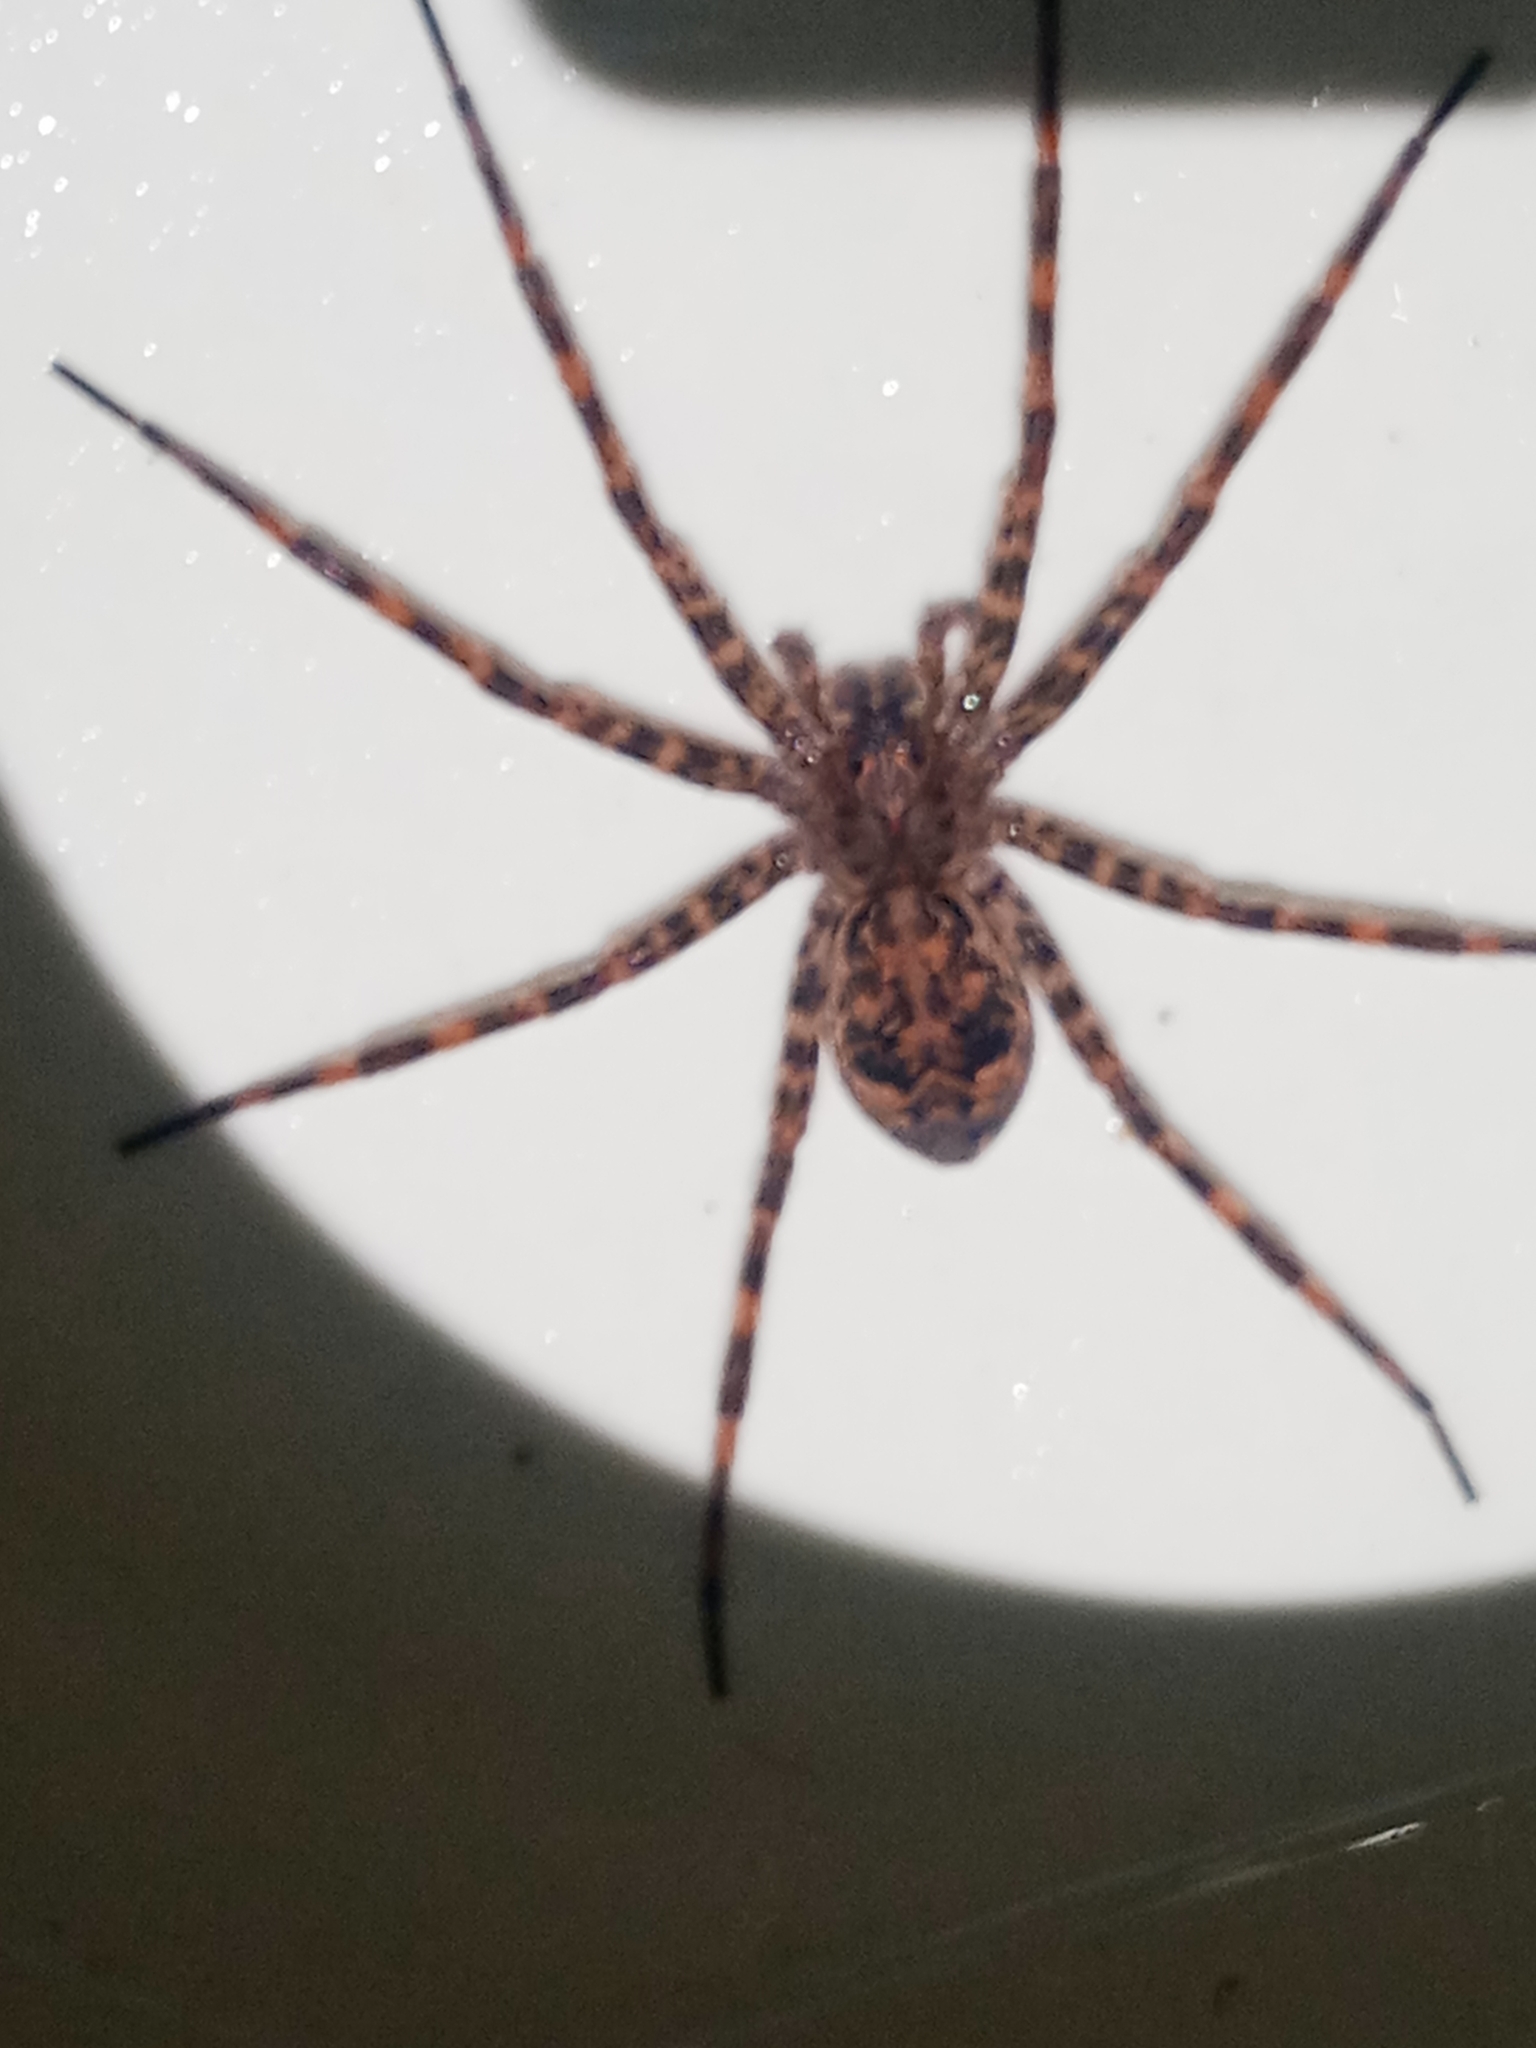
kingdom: Animalia
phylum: Arthropoda
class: Arachnida
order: Araneae
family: Pisauridae
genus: Dolomedes
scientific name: Dolomedes tenebrosus
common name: Dark fishing spider
